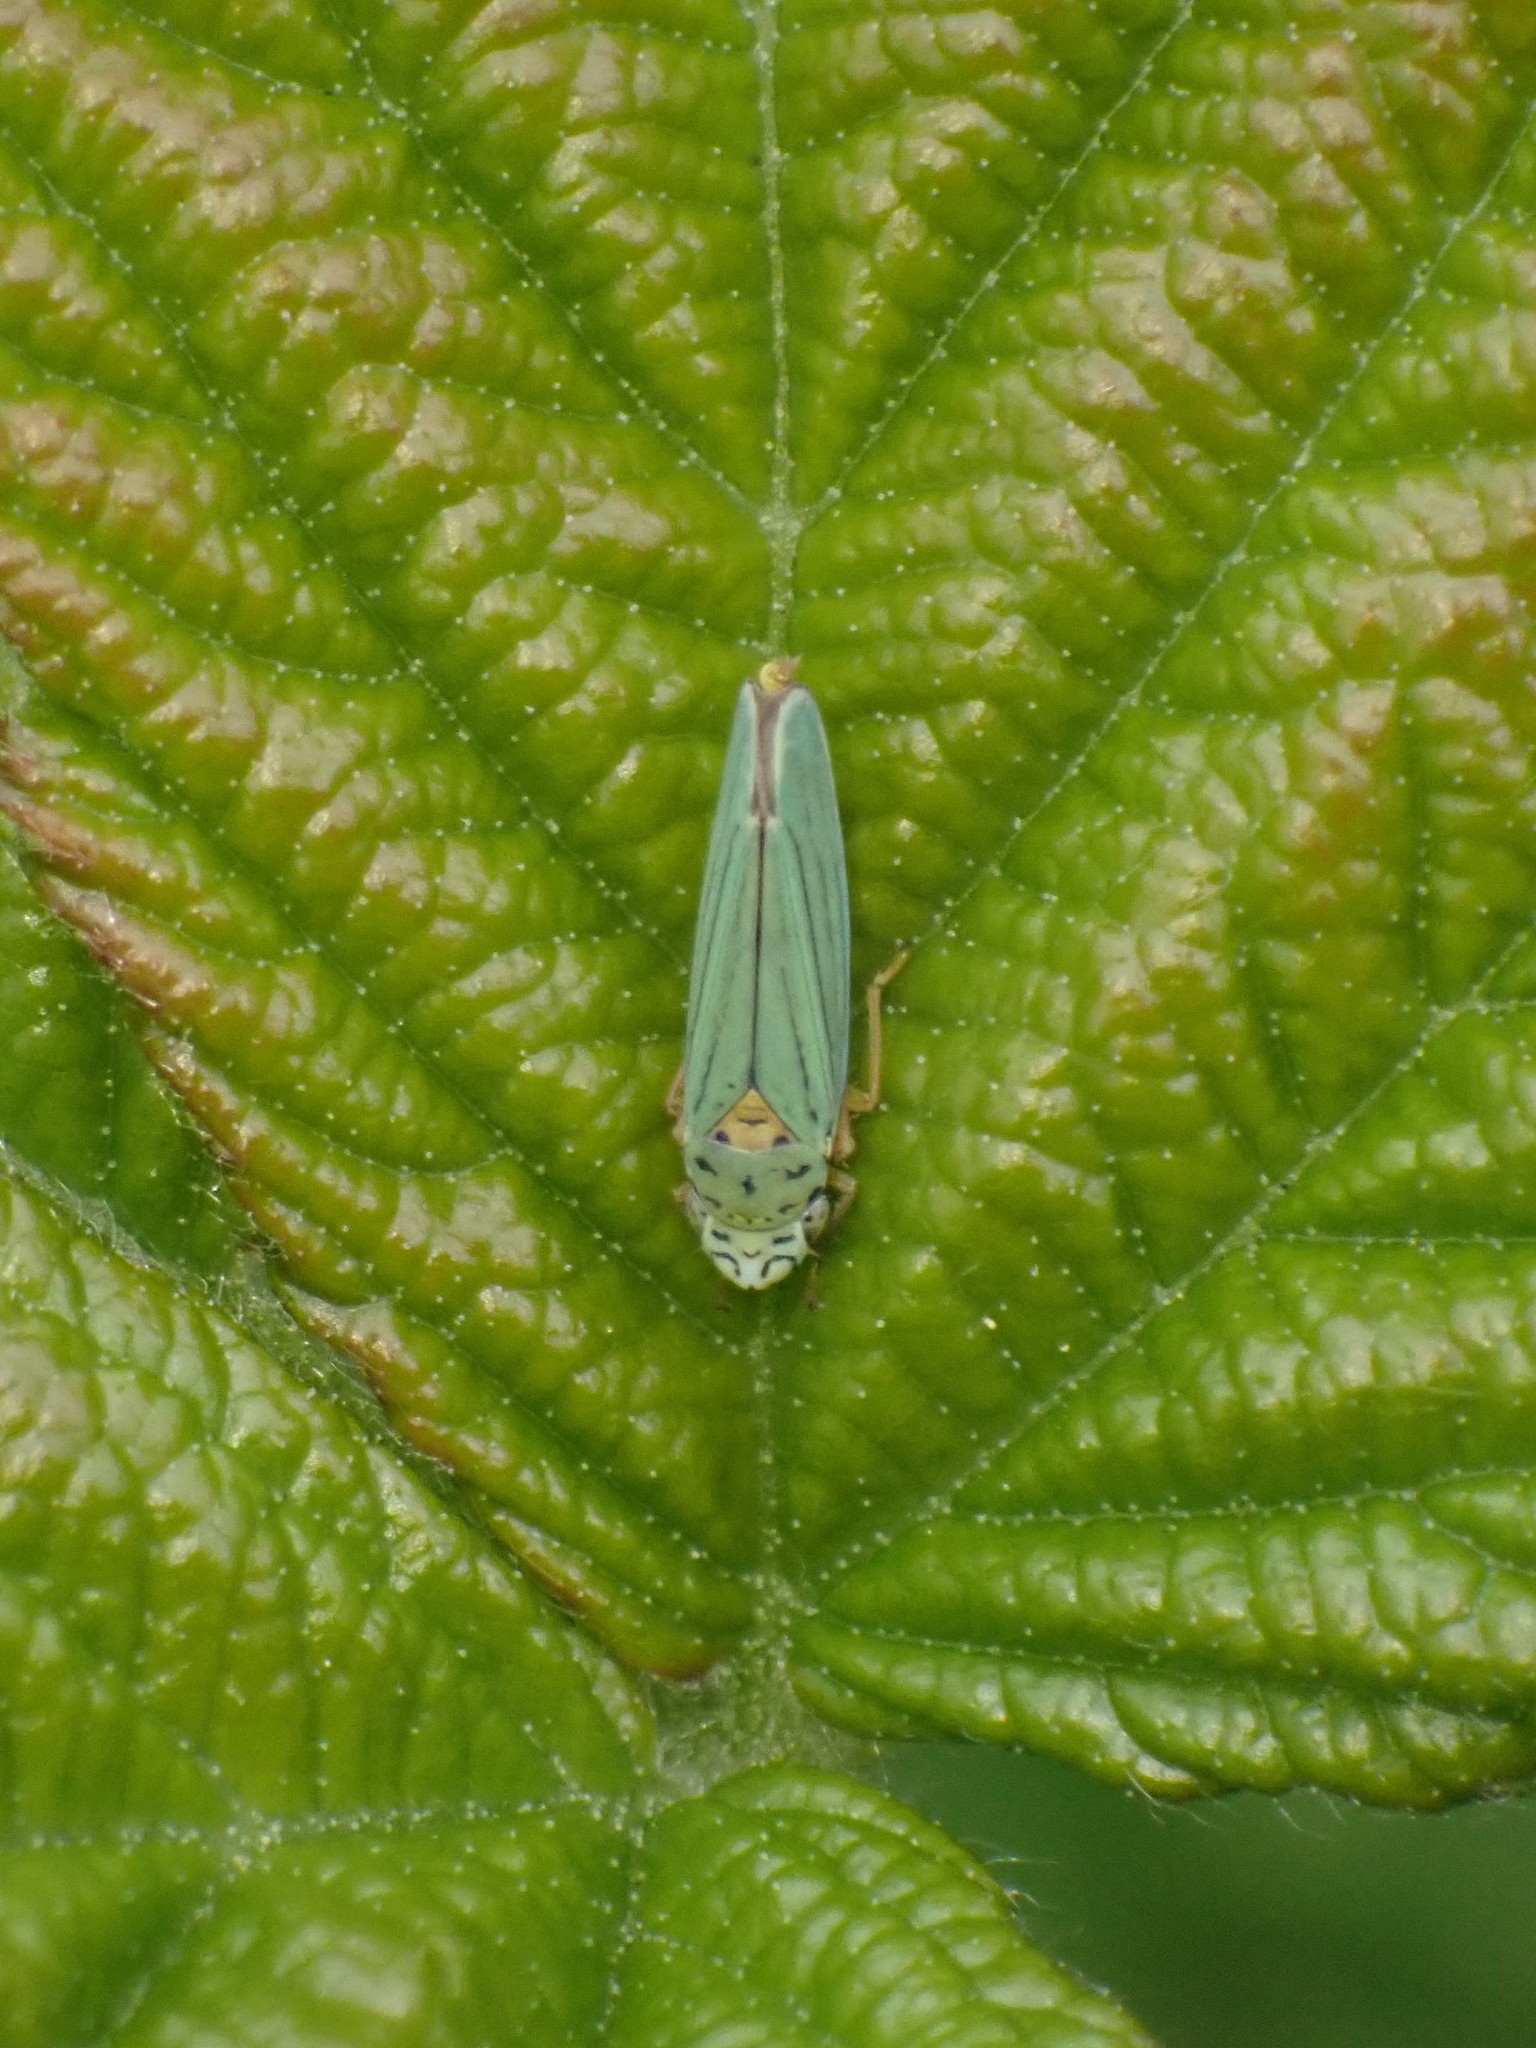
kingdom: Animalia
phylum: Arthropoda
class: Insecta
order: Hemiptera
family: Cicadellidae
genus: Graphocephala
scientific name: Graphocephala atropunctata
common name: Blue-green sharpshooter
